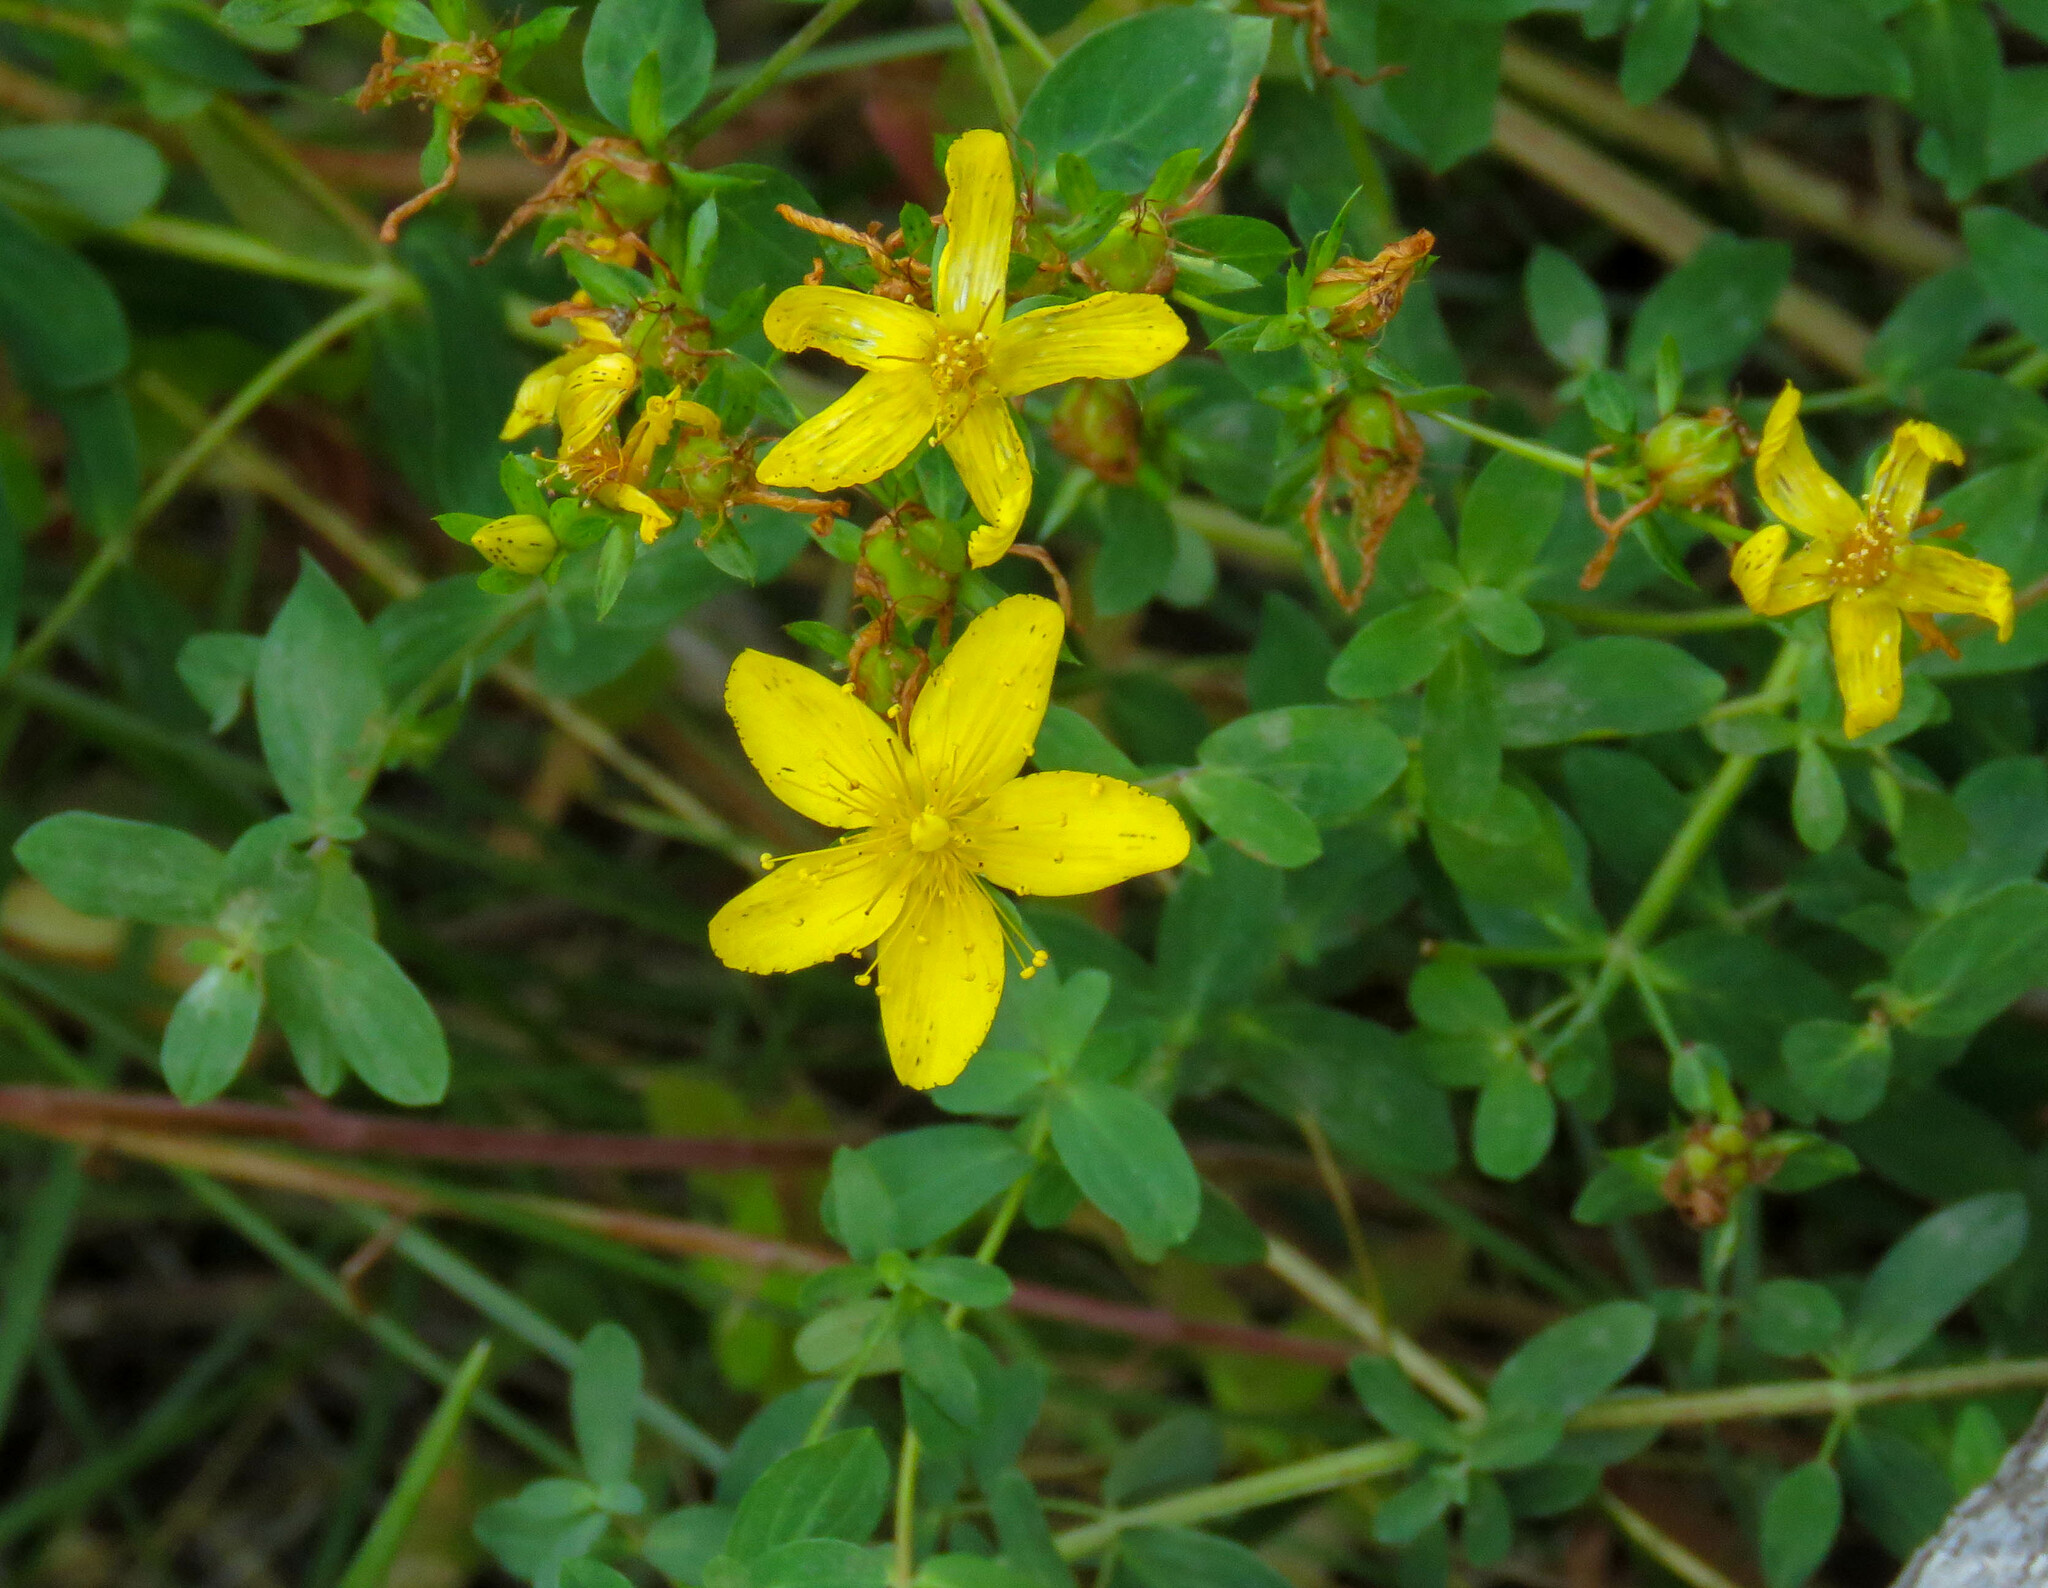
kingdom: Plantae
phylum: Tracheophyta
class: Magnoliopsida
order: Malpighiales
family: Hypericaceae
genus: Hypericum
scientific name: Hypericum perforatum
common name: Common st. johnswort
